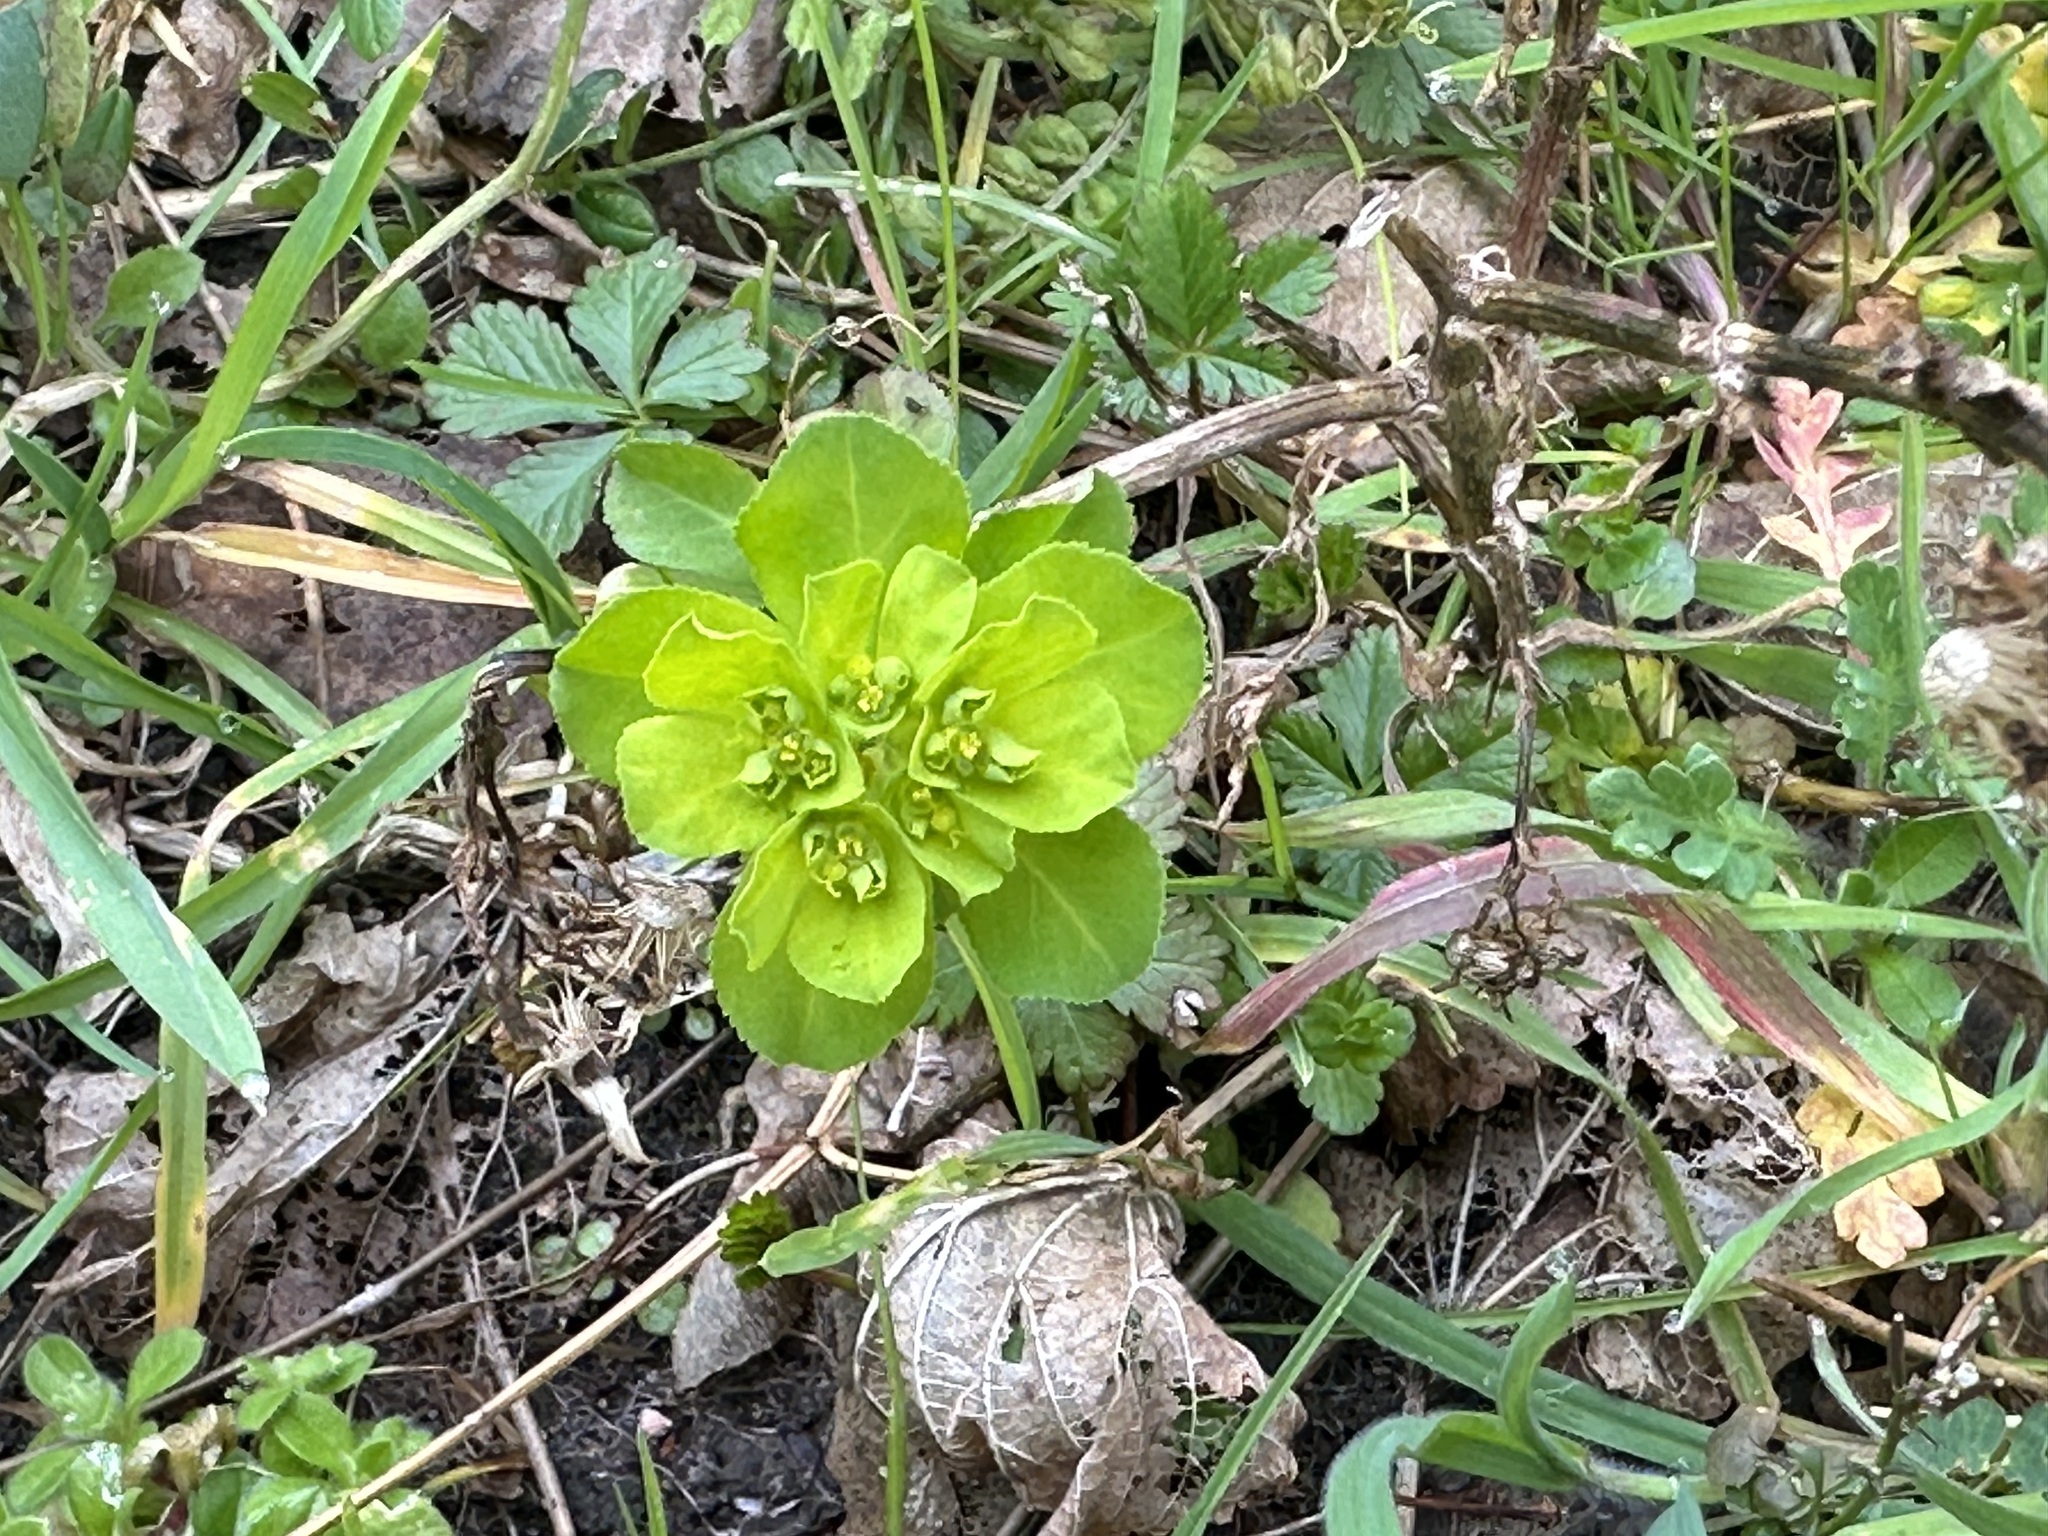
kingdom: Plantae
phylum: Tracheophyta
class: Magnoliopsida
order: Malpighiales
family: Euphorbiaceae
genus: Euphorbia
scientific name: Euphorbia helioscopia
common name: Sun spurge
